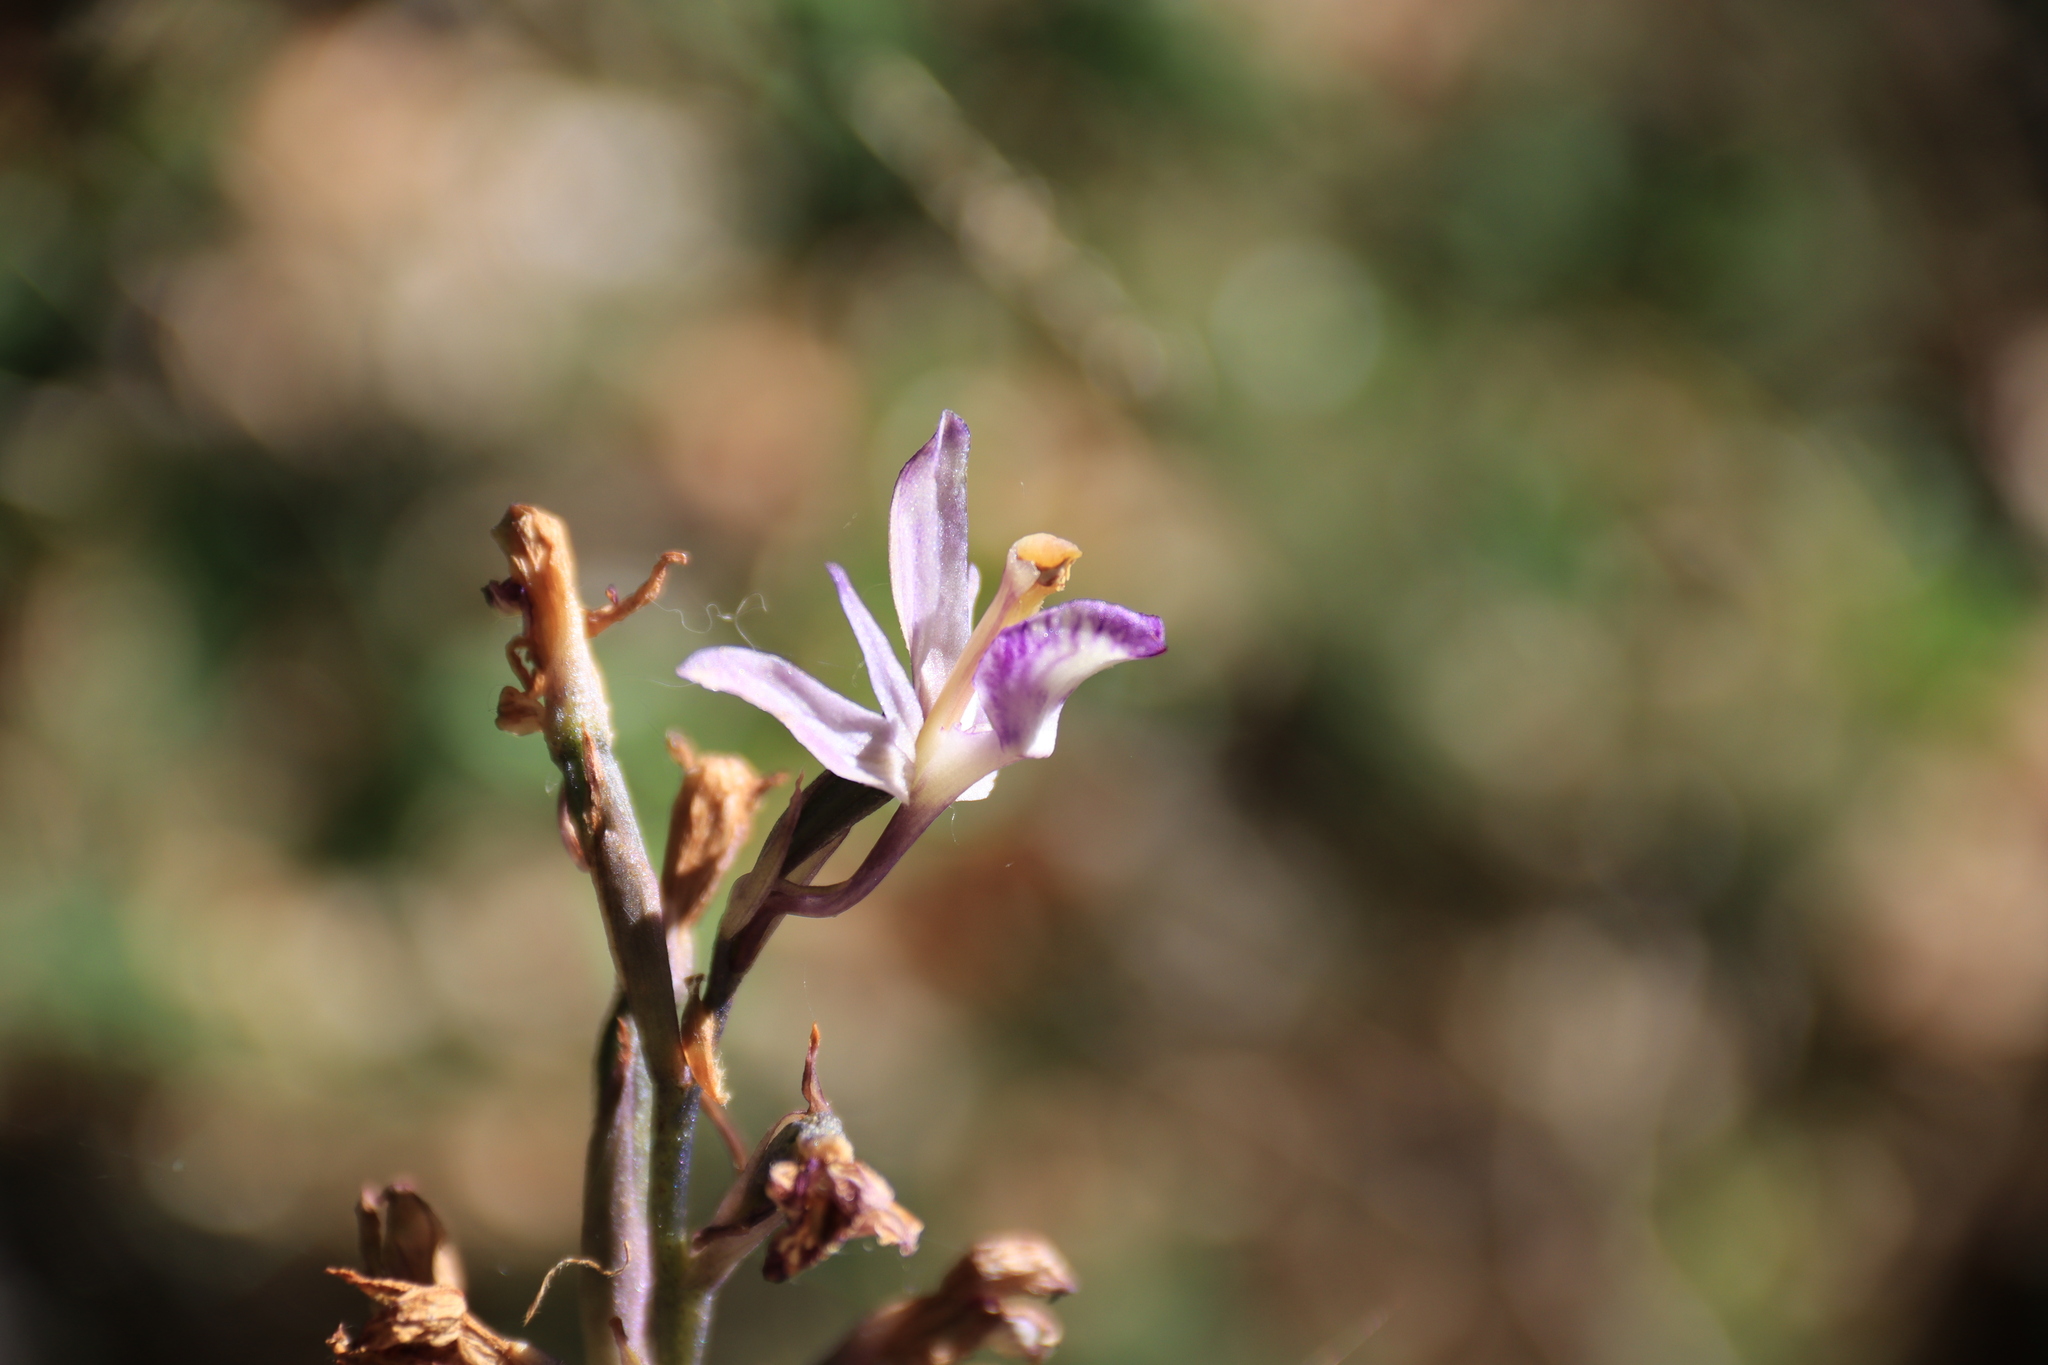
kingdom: Plantae
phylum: Tracheophyta
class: Liliopsida
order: Asparagales
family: Orchidaceae
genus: Limodorum
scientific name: Limodorum abortivum
